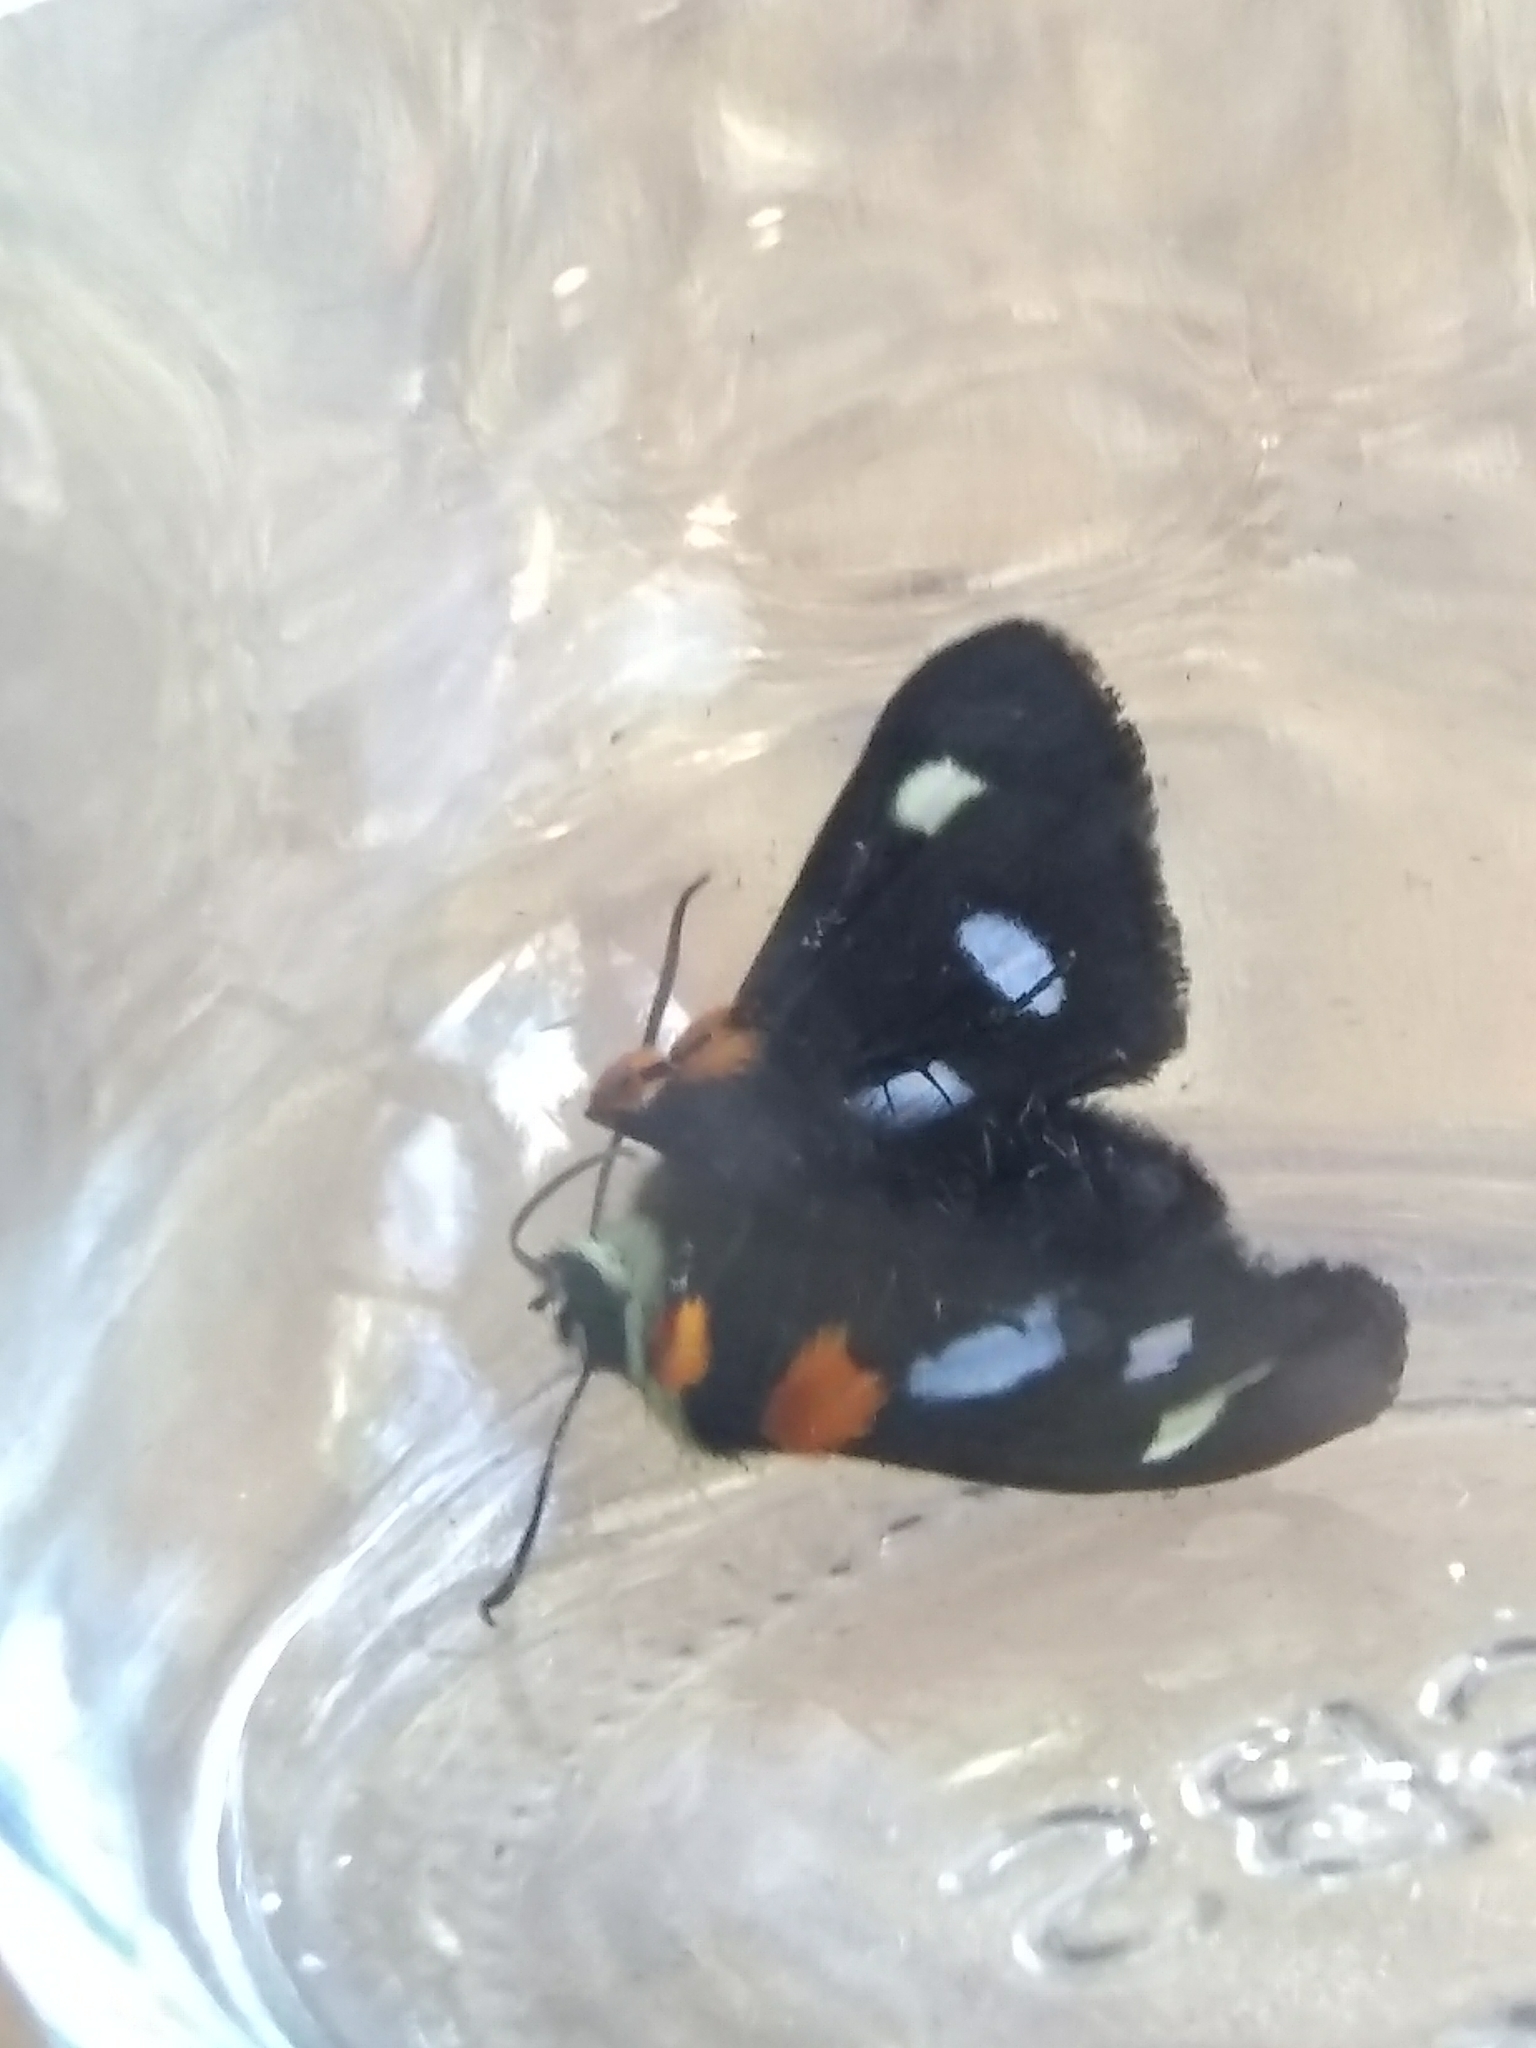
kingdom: Animalia
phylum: Arthropoda
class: Insecta
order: Lepidoptera
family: Noctuidae
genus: Alypia
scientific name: Alypia octomaculata
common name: Eight-spotted forester
